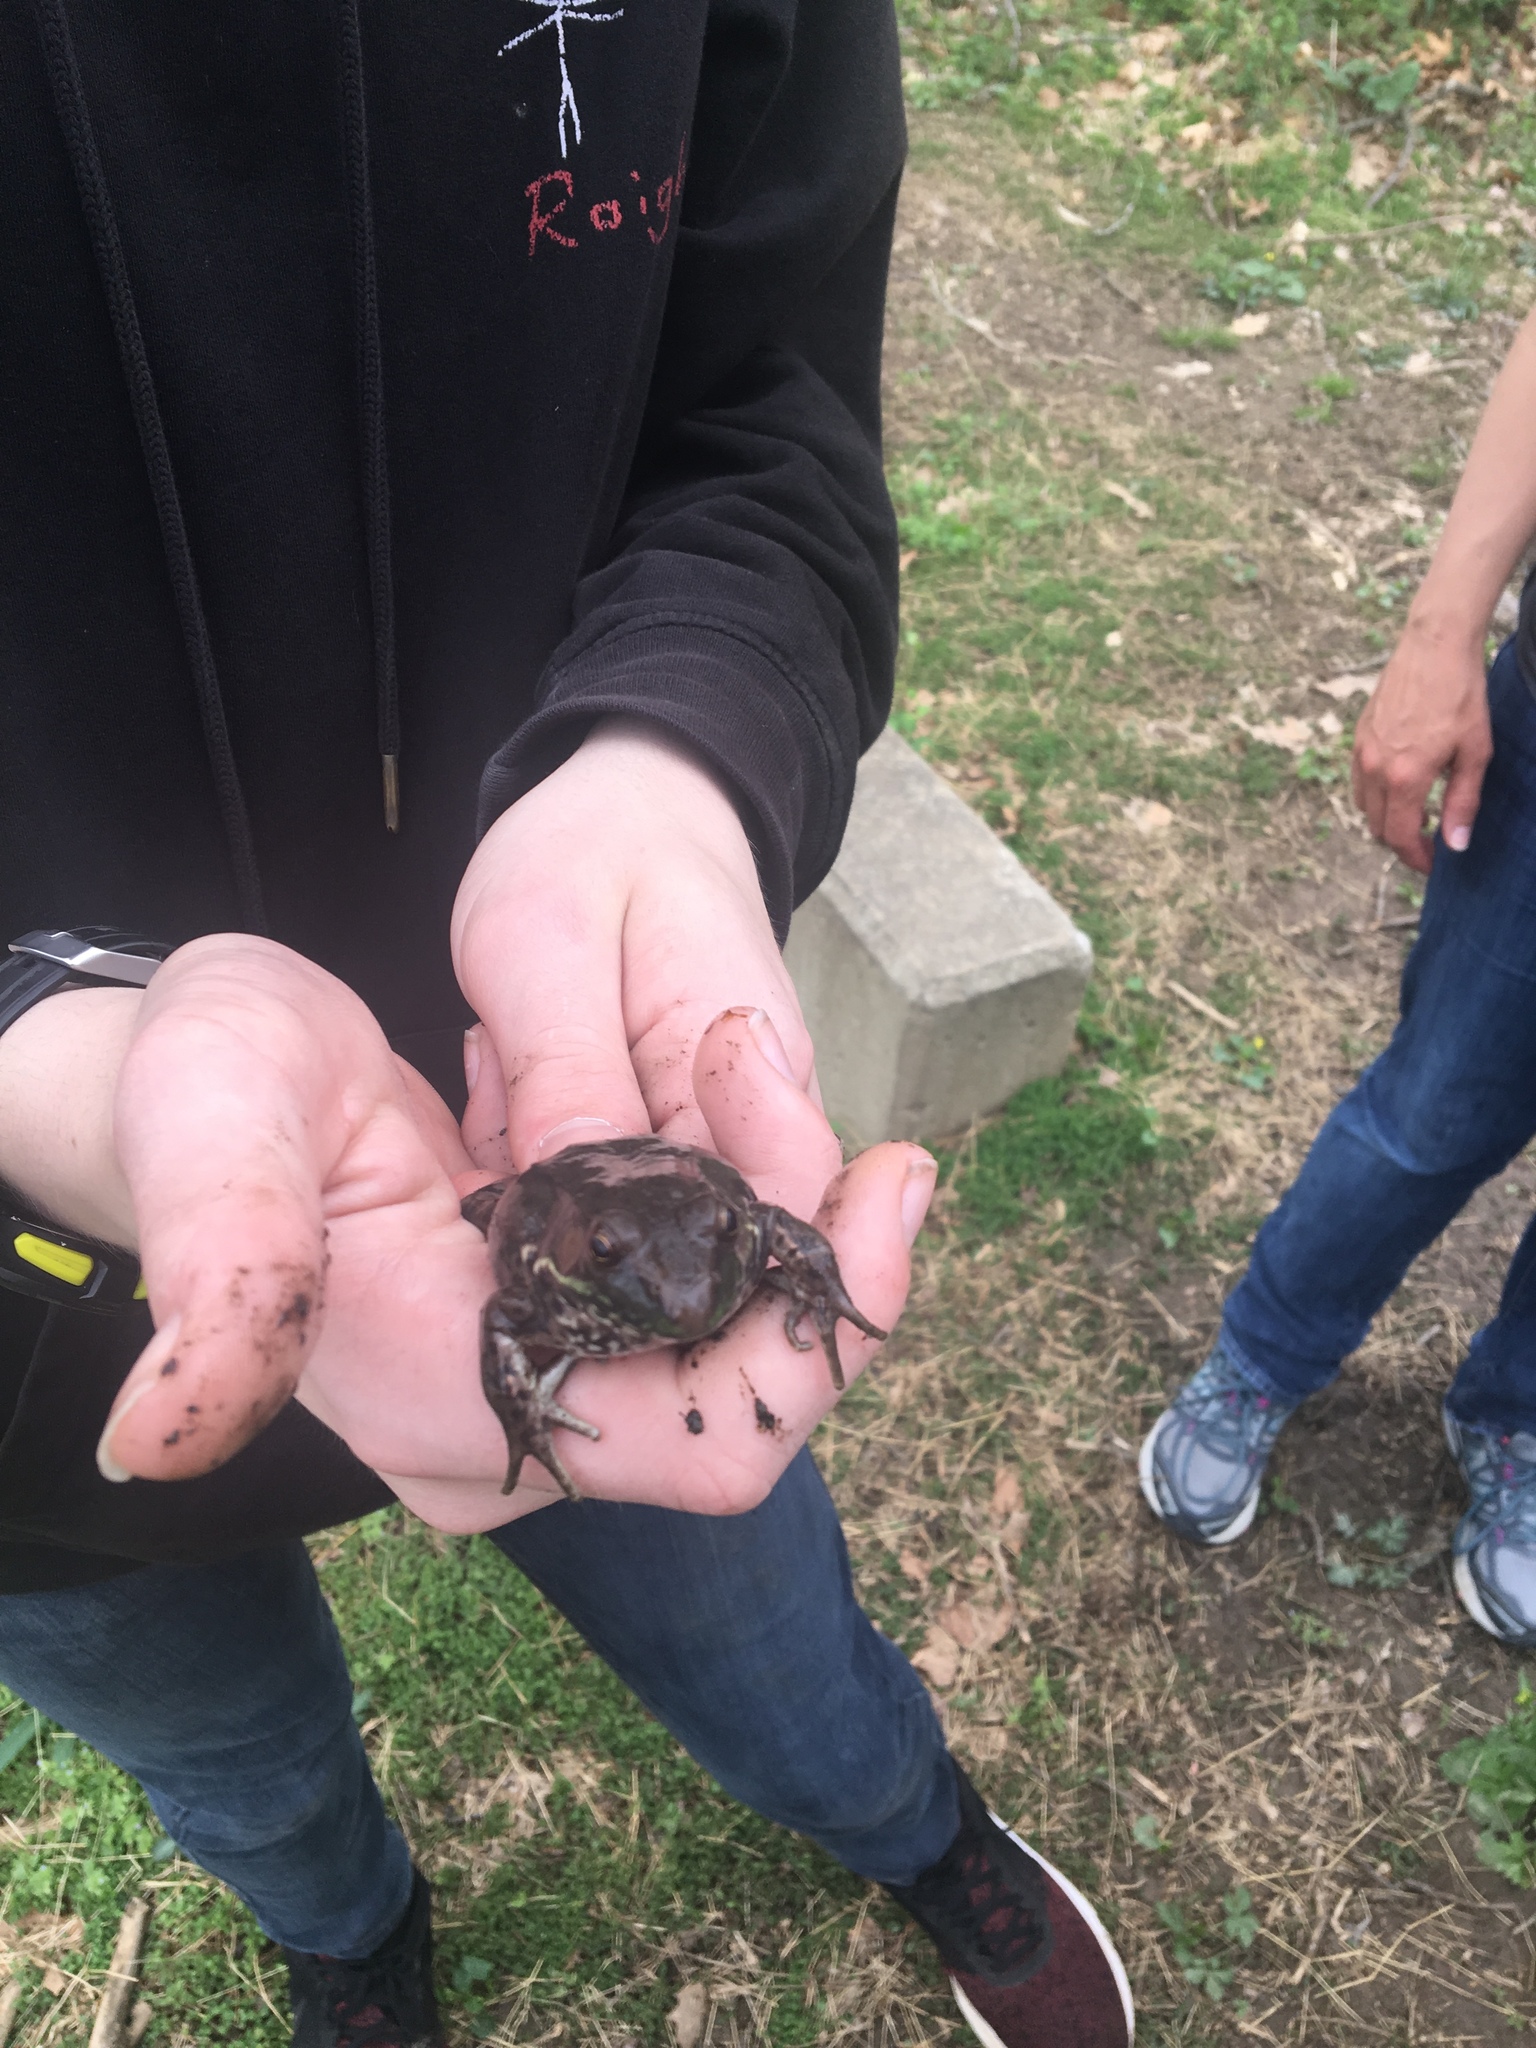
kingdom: Animalia
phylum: Chordata
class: Amphibia
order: Anura
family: Ranidae
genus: Lithobates
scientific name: Lithobates clamitans
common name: Green frog
